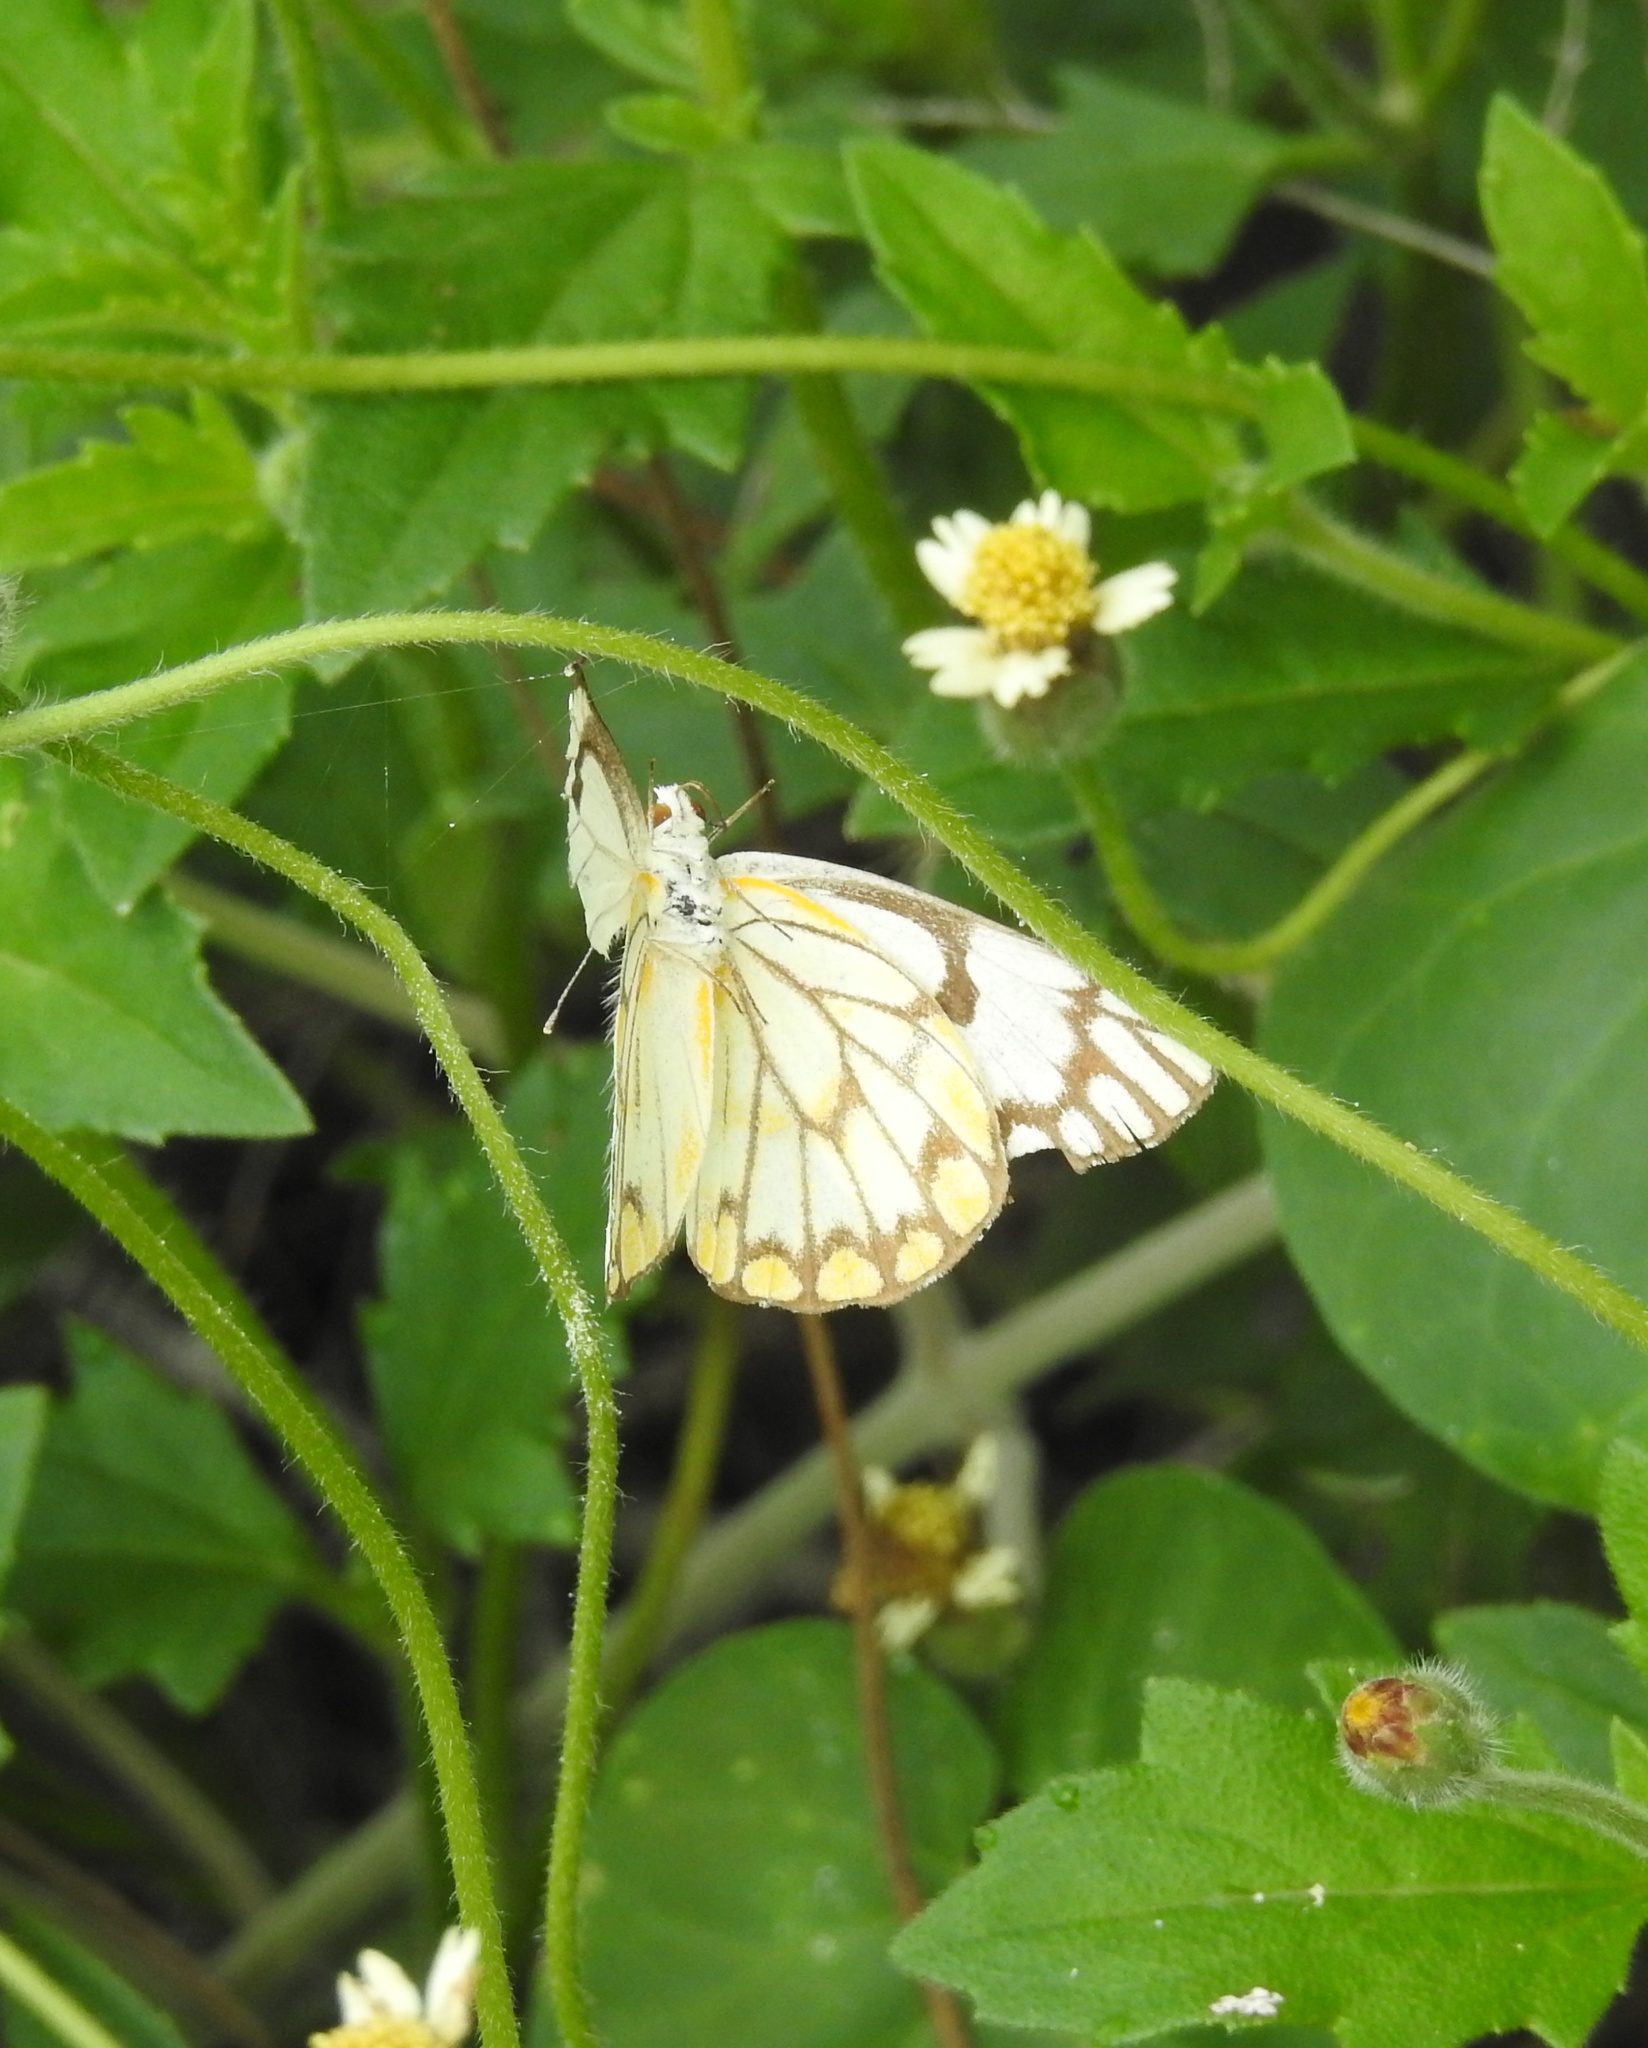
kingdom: Animalia
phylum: Arthropoda
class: Insecta
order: Lepidoptera
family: Pieridae
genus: Belenois
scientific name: Belenois aurota
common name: Brown-veined white
